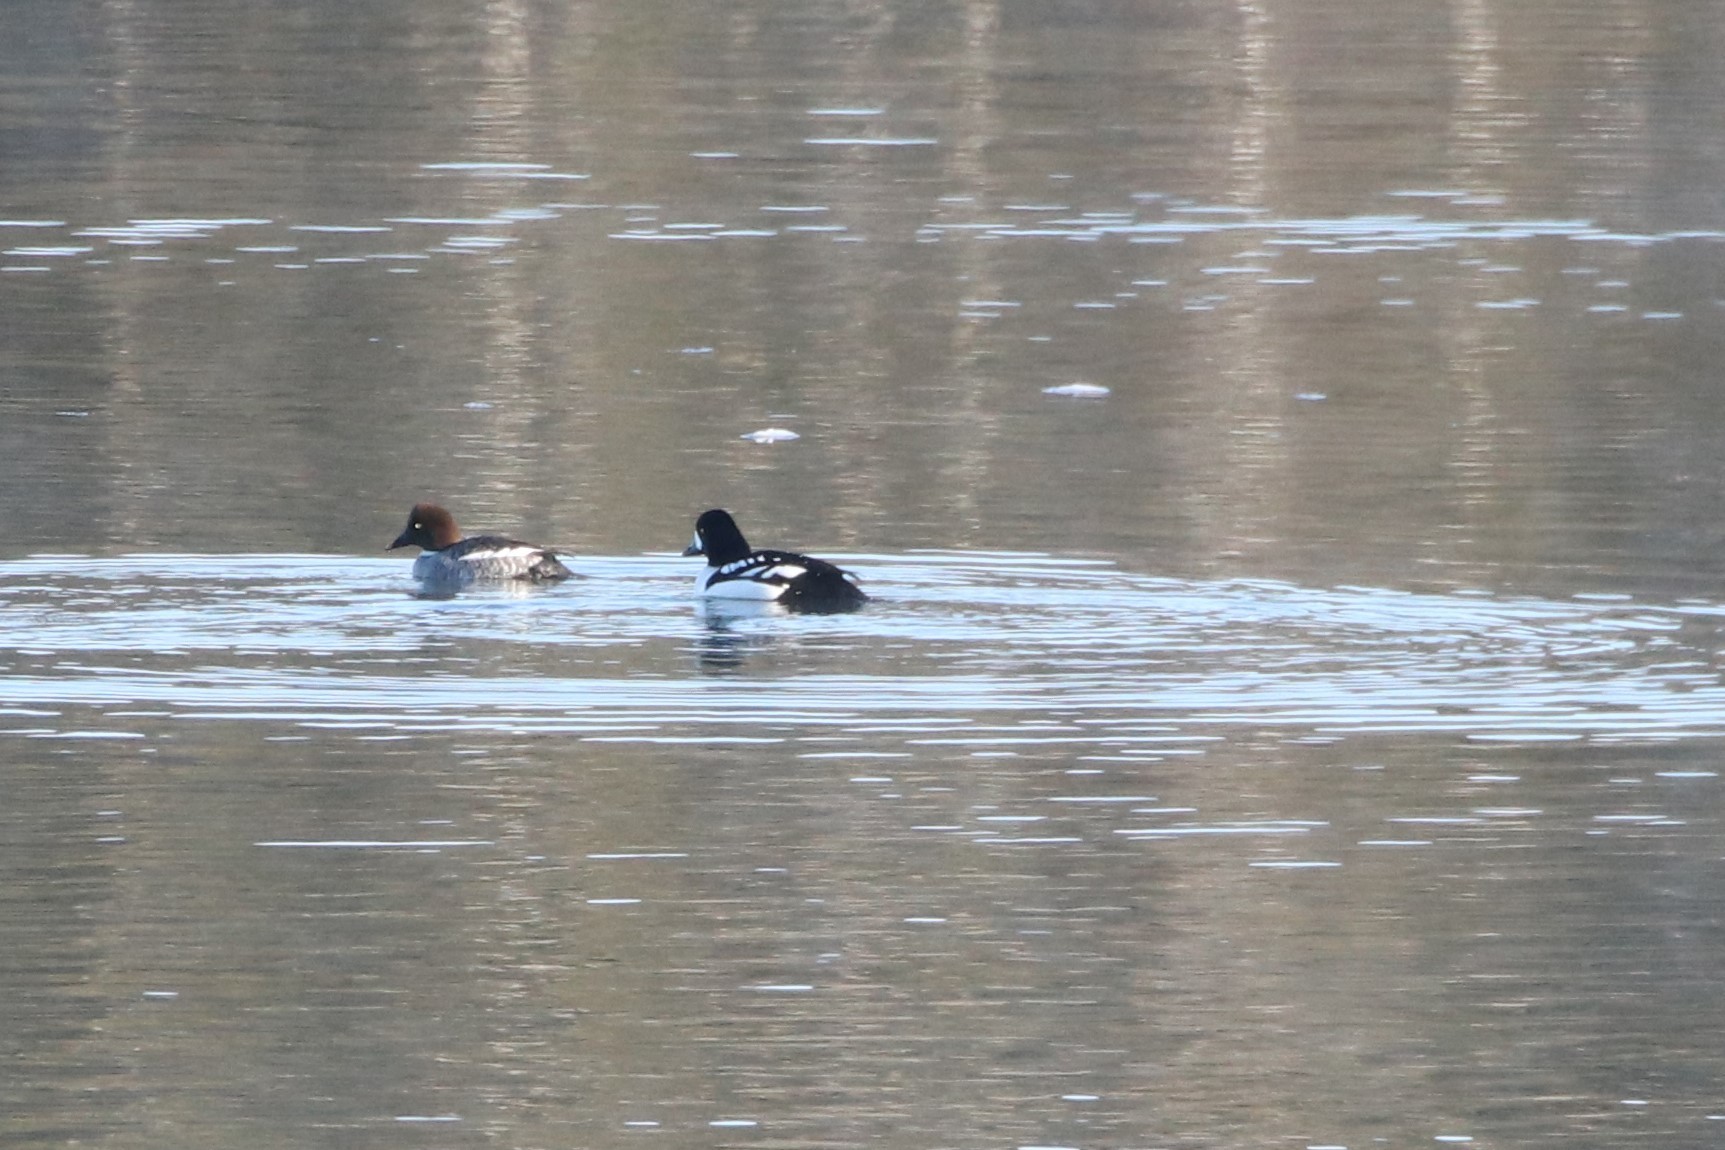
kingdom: Animalia
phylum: Chordata
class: Aves
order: Anseriformes
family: Anatidae
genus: Bucephala
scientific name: Bucephala islandica
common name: Barrow's goldeneye
